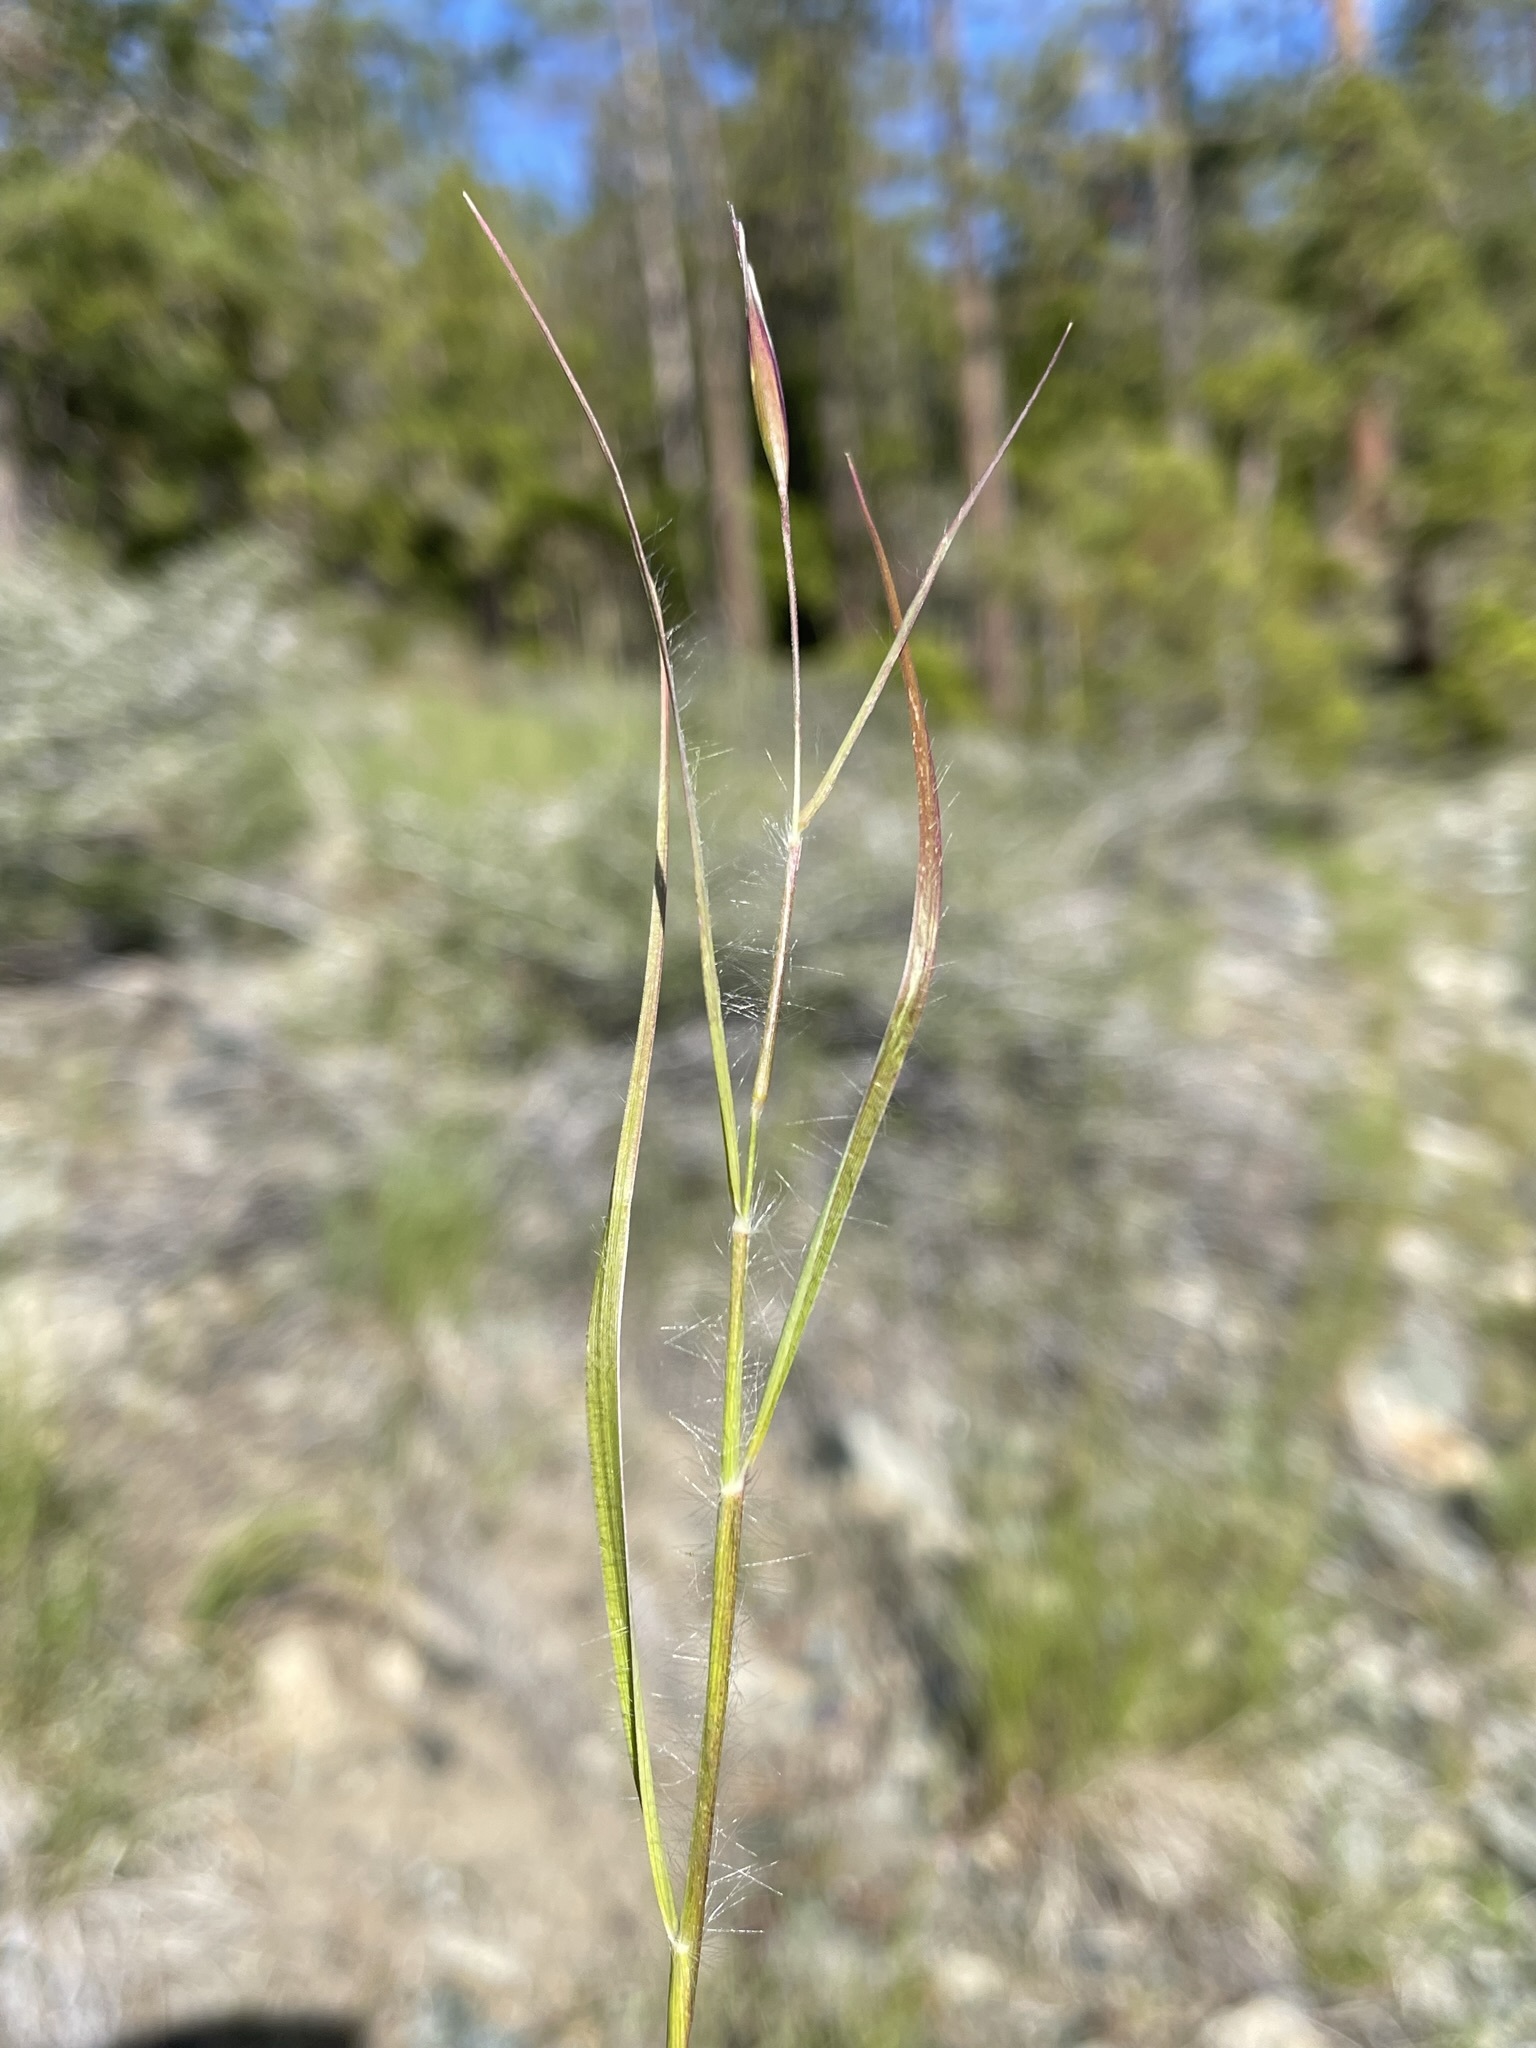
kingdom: Plantae
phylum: Tracheophyta
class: Liliopsida
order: Poales
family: Poaceae
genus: Danthonia
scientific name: Danthonia unispicata
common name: Few-flowered oatgrass
